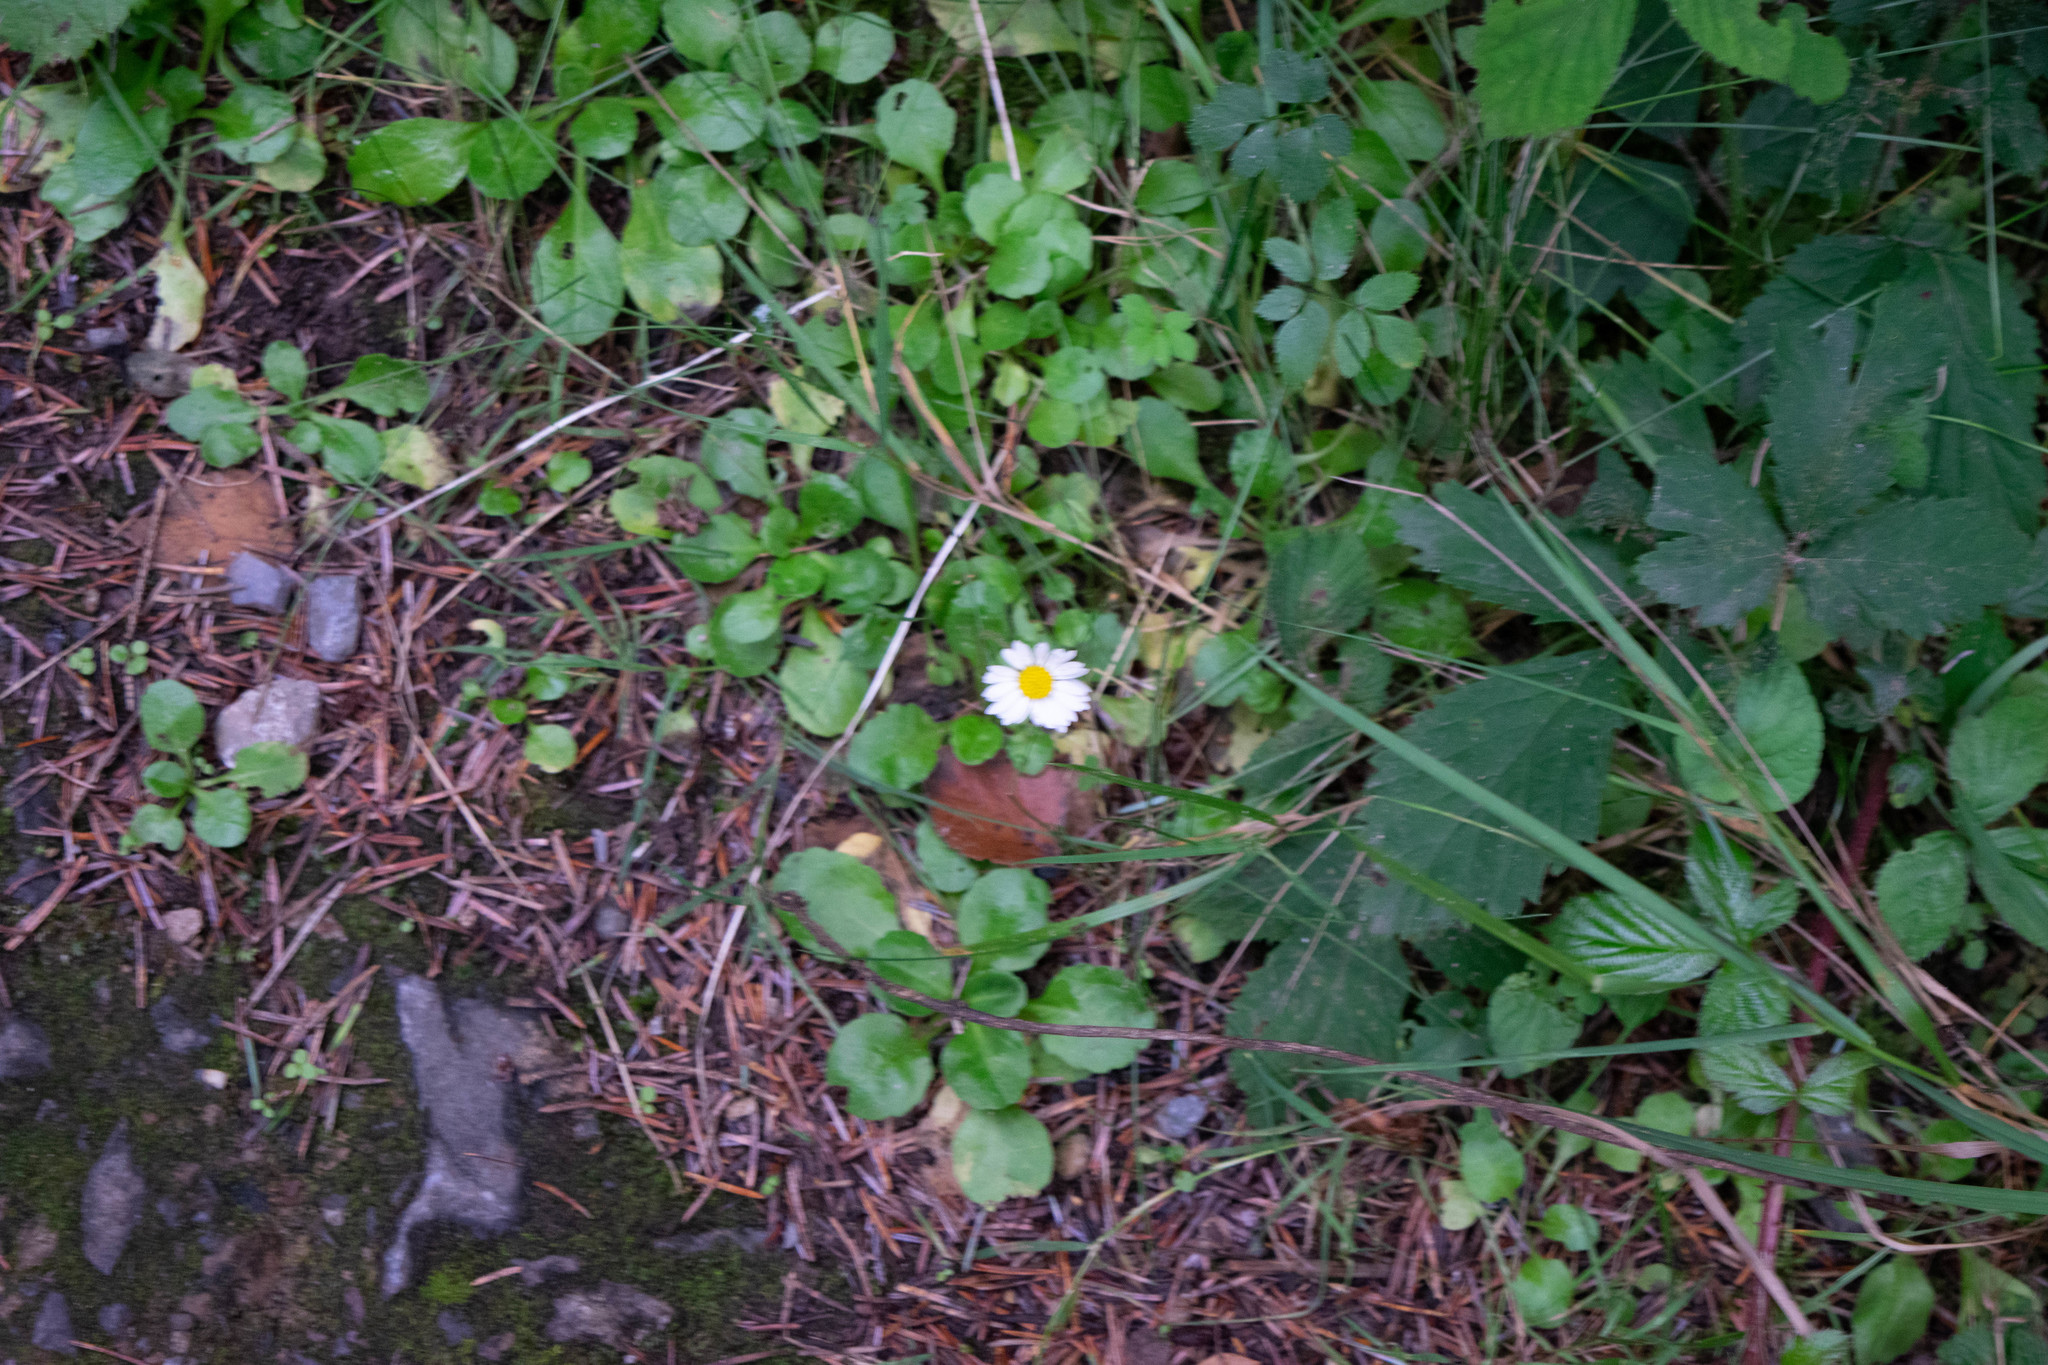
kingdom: Plantae
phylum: Tracheophyta
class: Magnoliopsida
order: Asterales
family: Asteraceae
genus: Bellis
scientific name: Bellis perennis
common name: Lawndaisy
